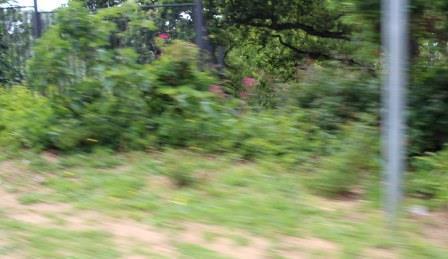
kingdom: Plantae
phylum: Tracheophyta
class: Magnoliopsida
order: Dipsacales
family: Caprifoliaceae
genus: Centranthus
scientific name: Centranthus ruber
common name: Red valerian
